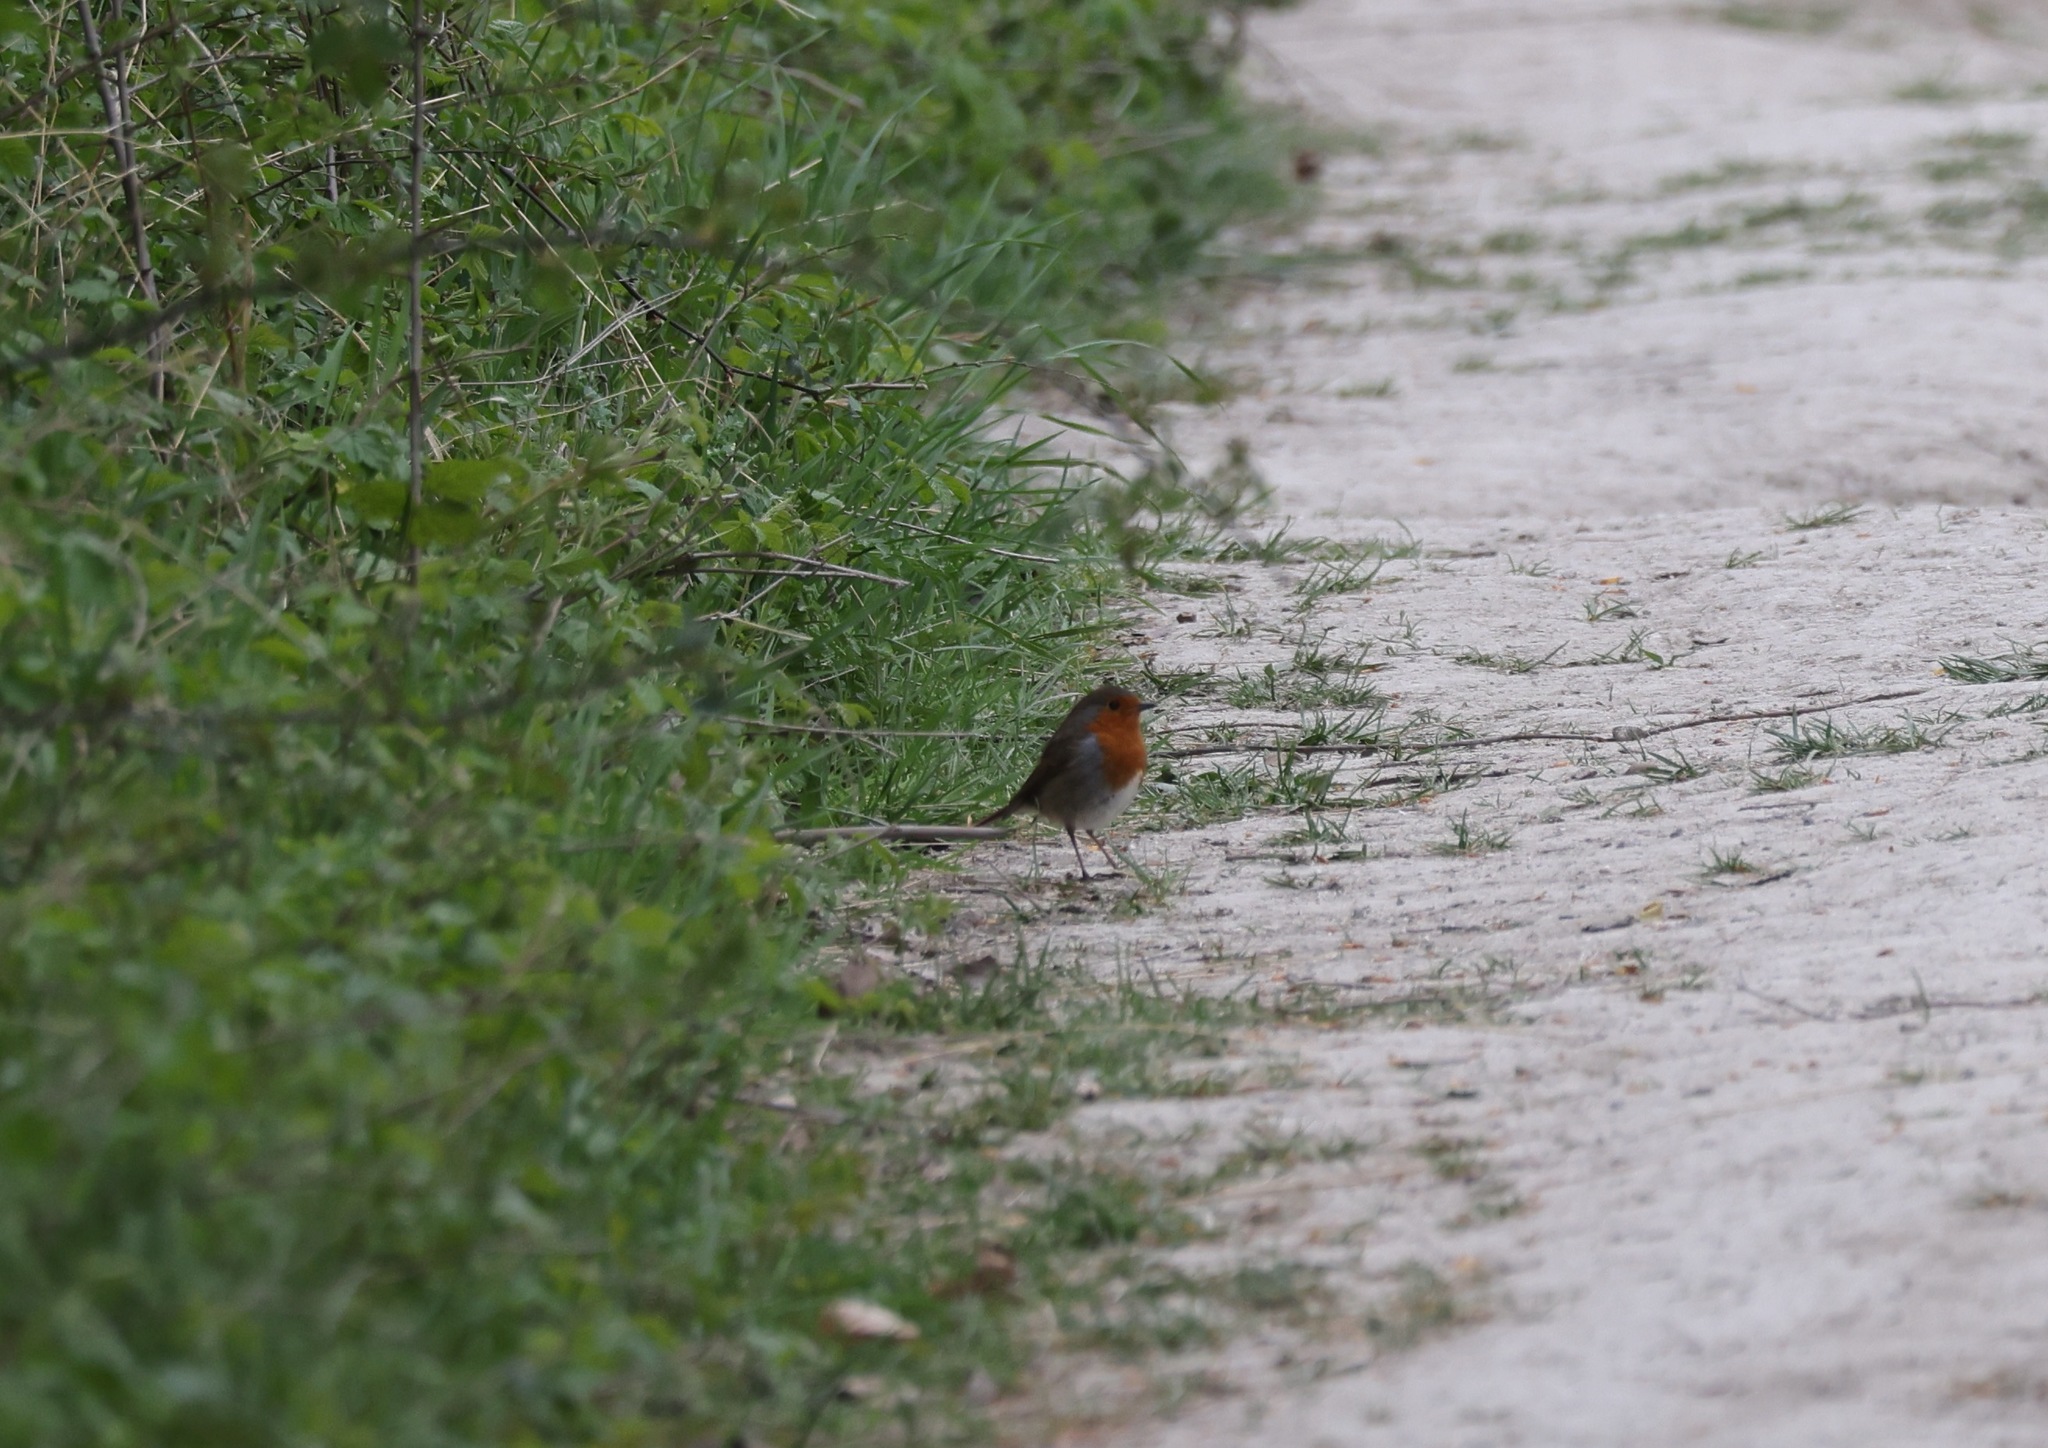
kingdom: Animalia
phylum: Chordata
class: Aves
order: Passeriformes
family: Muscicapidae
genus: Erithacus
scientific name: Erithacus rubecula
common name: European robin
